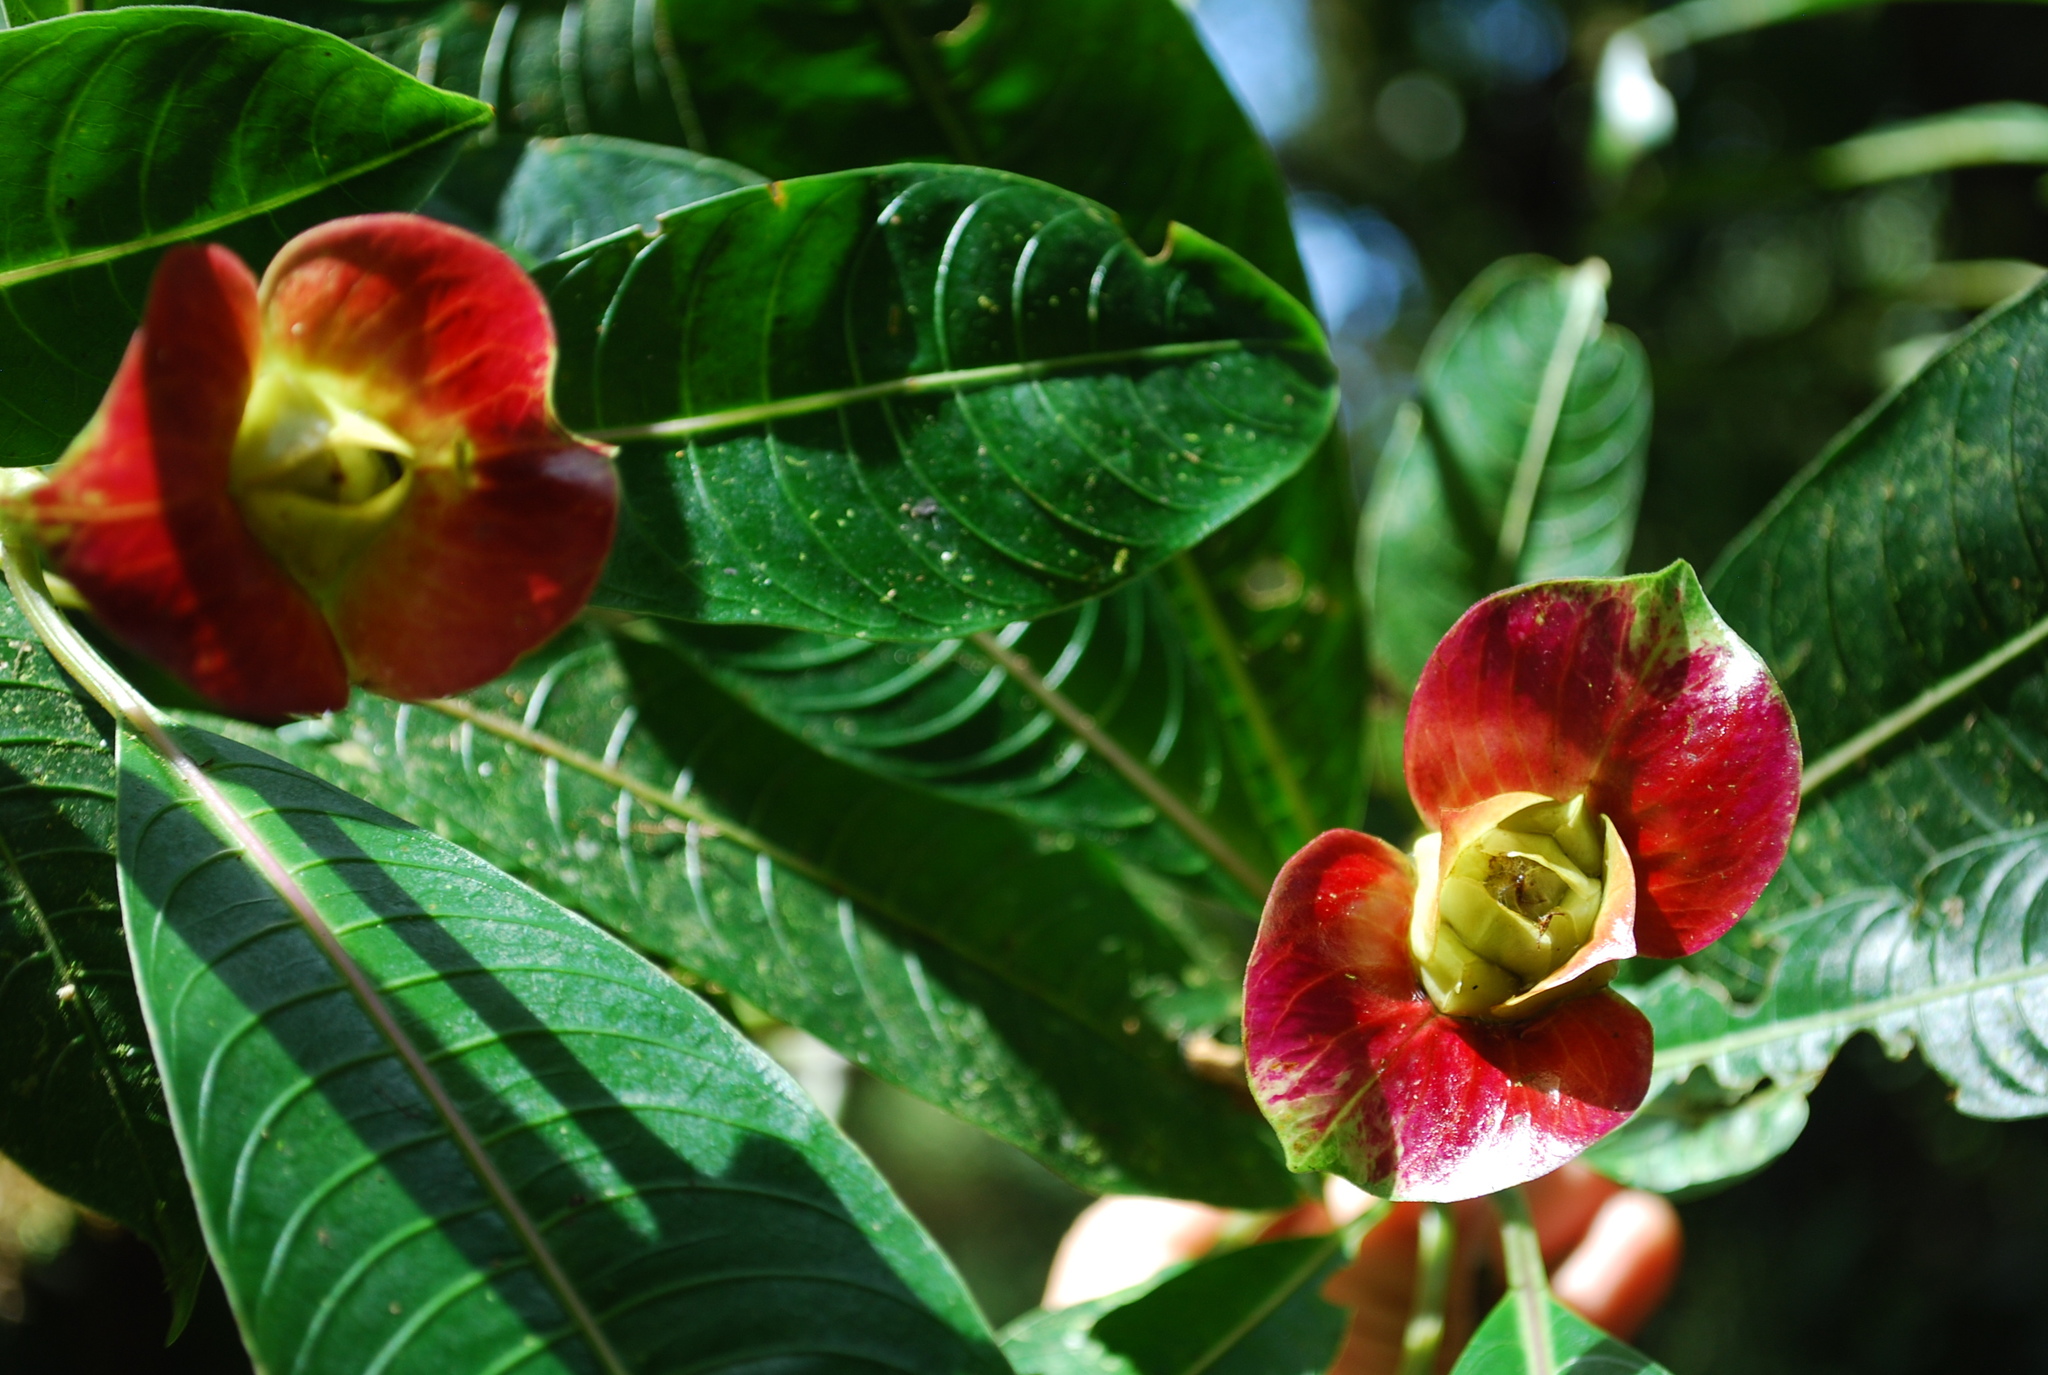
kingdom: Plantae
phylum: Tracheophyta
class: Magnoliopsida
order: Gentianales
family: Rubiaceae
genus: Palicourea
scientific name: Palicourea elata
